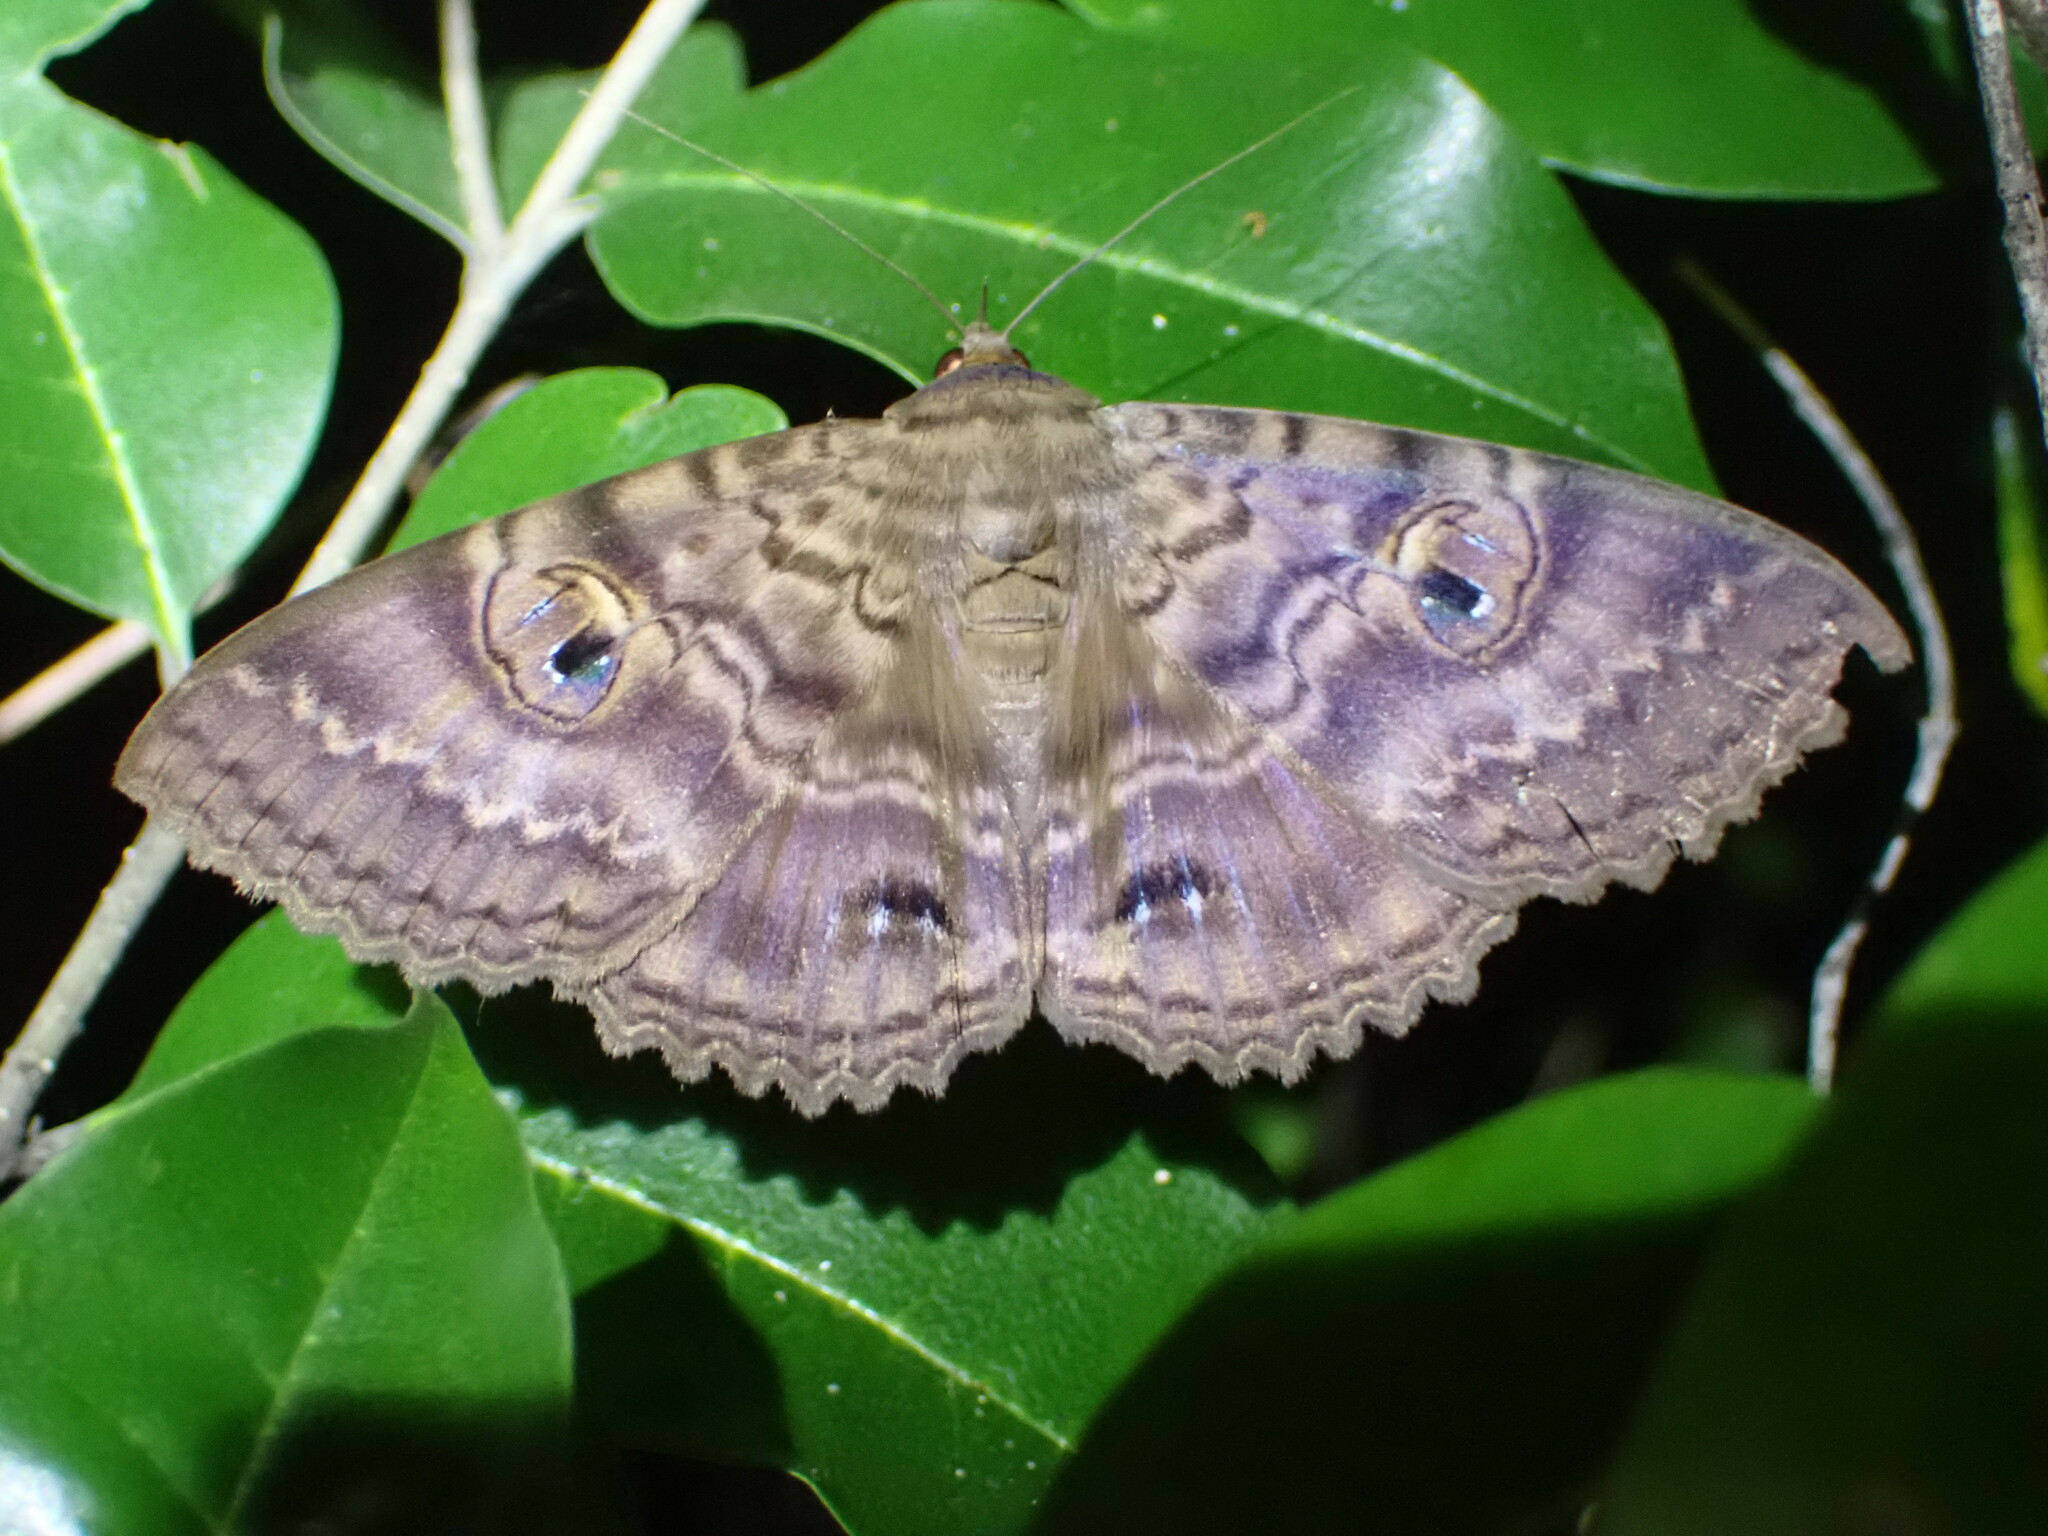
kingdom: Animalia
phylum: Arthropoda
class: Insecta
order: Lepidoptera
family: Erebidae
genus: Speiredonia
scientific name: Speiredonia spectans
